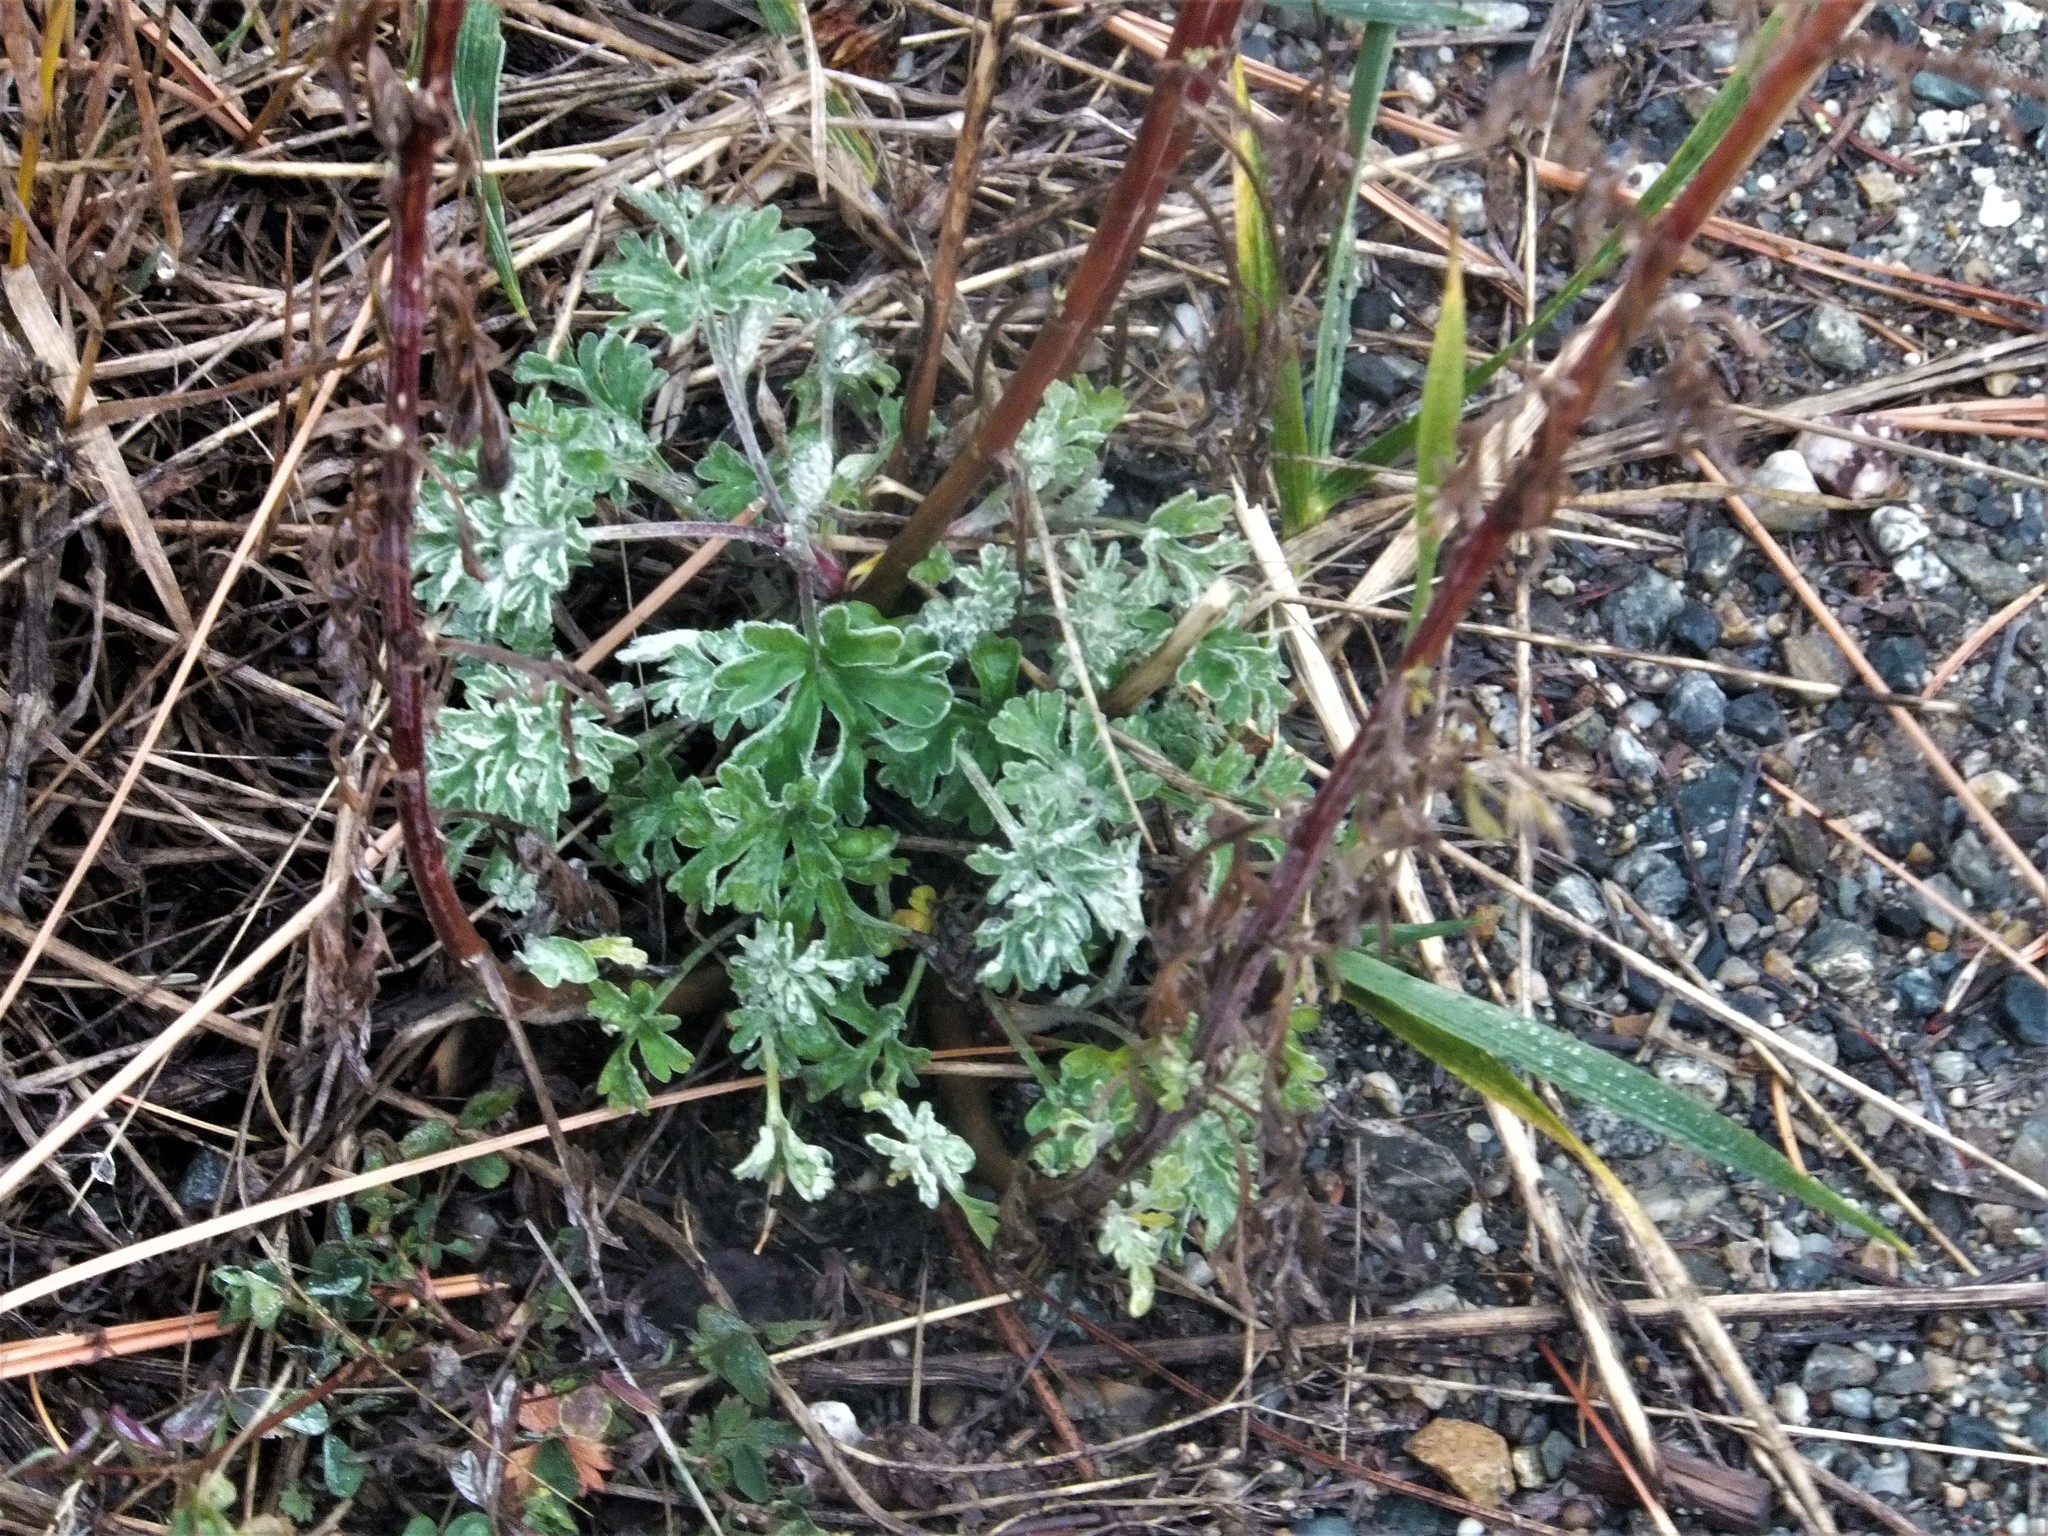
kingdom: Plantae
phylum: Tracheophyta
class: Magnoliopsida
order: Asterales
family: Asteraceae
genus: Artemisia
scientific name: Artemisia absinthium
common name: Wormwood
